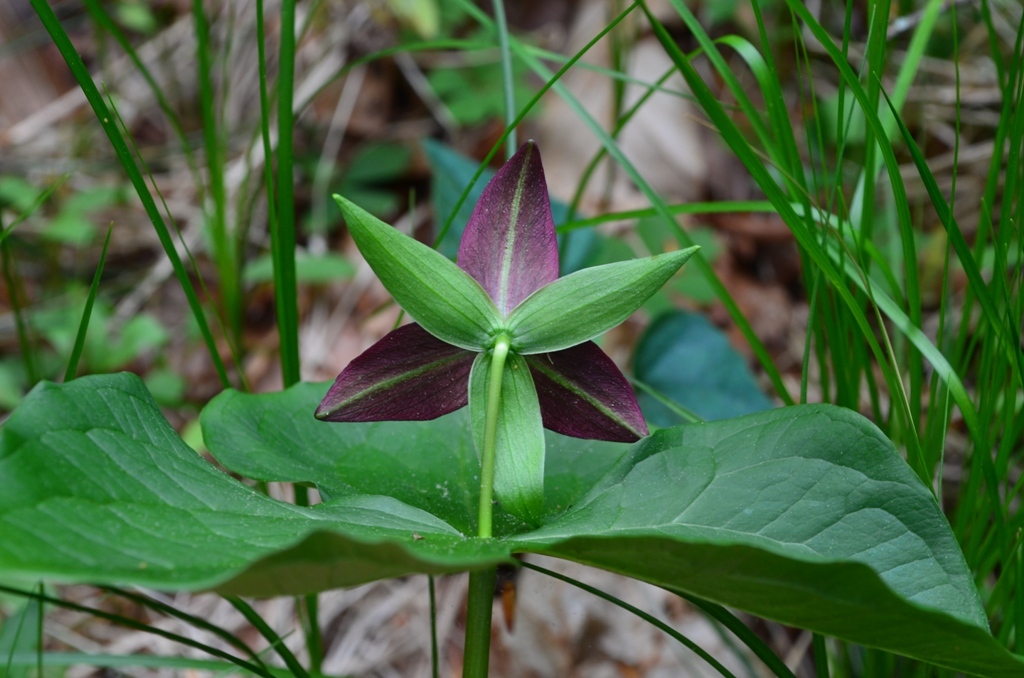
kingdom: Plantae
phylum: Tracheophyta
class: Liliopsida
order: Liliales
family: Melanthiaceae
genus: Trillium
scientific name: Trillium erectum
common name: Purple trillium
